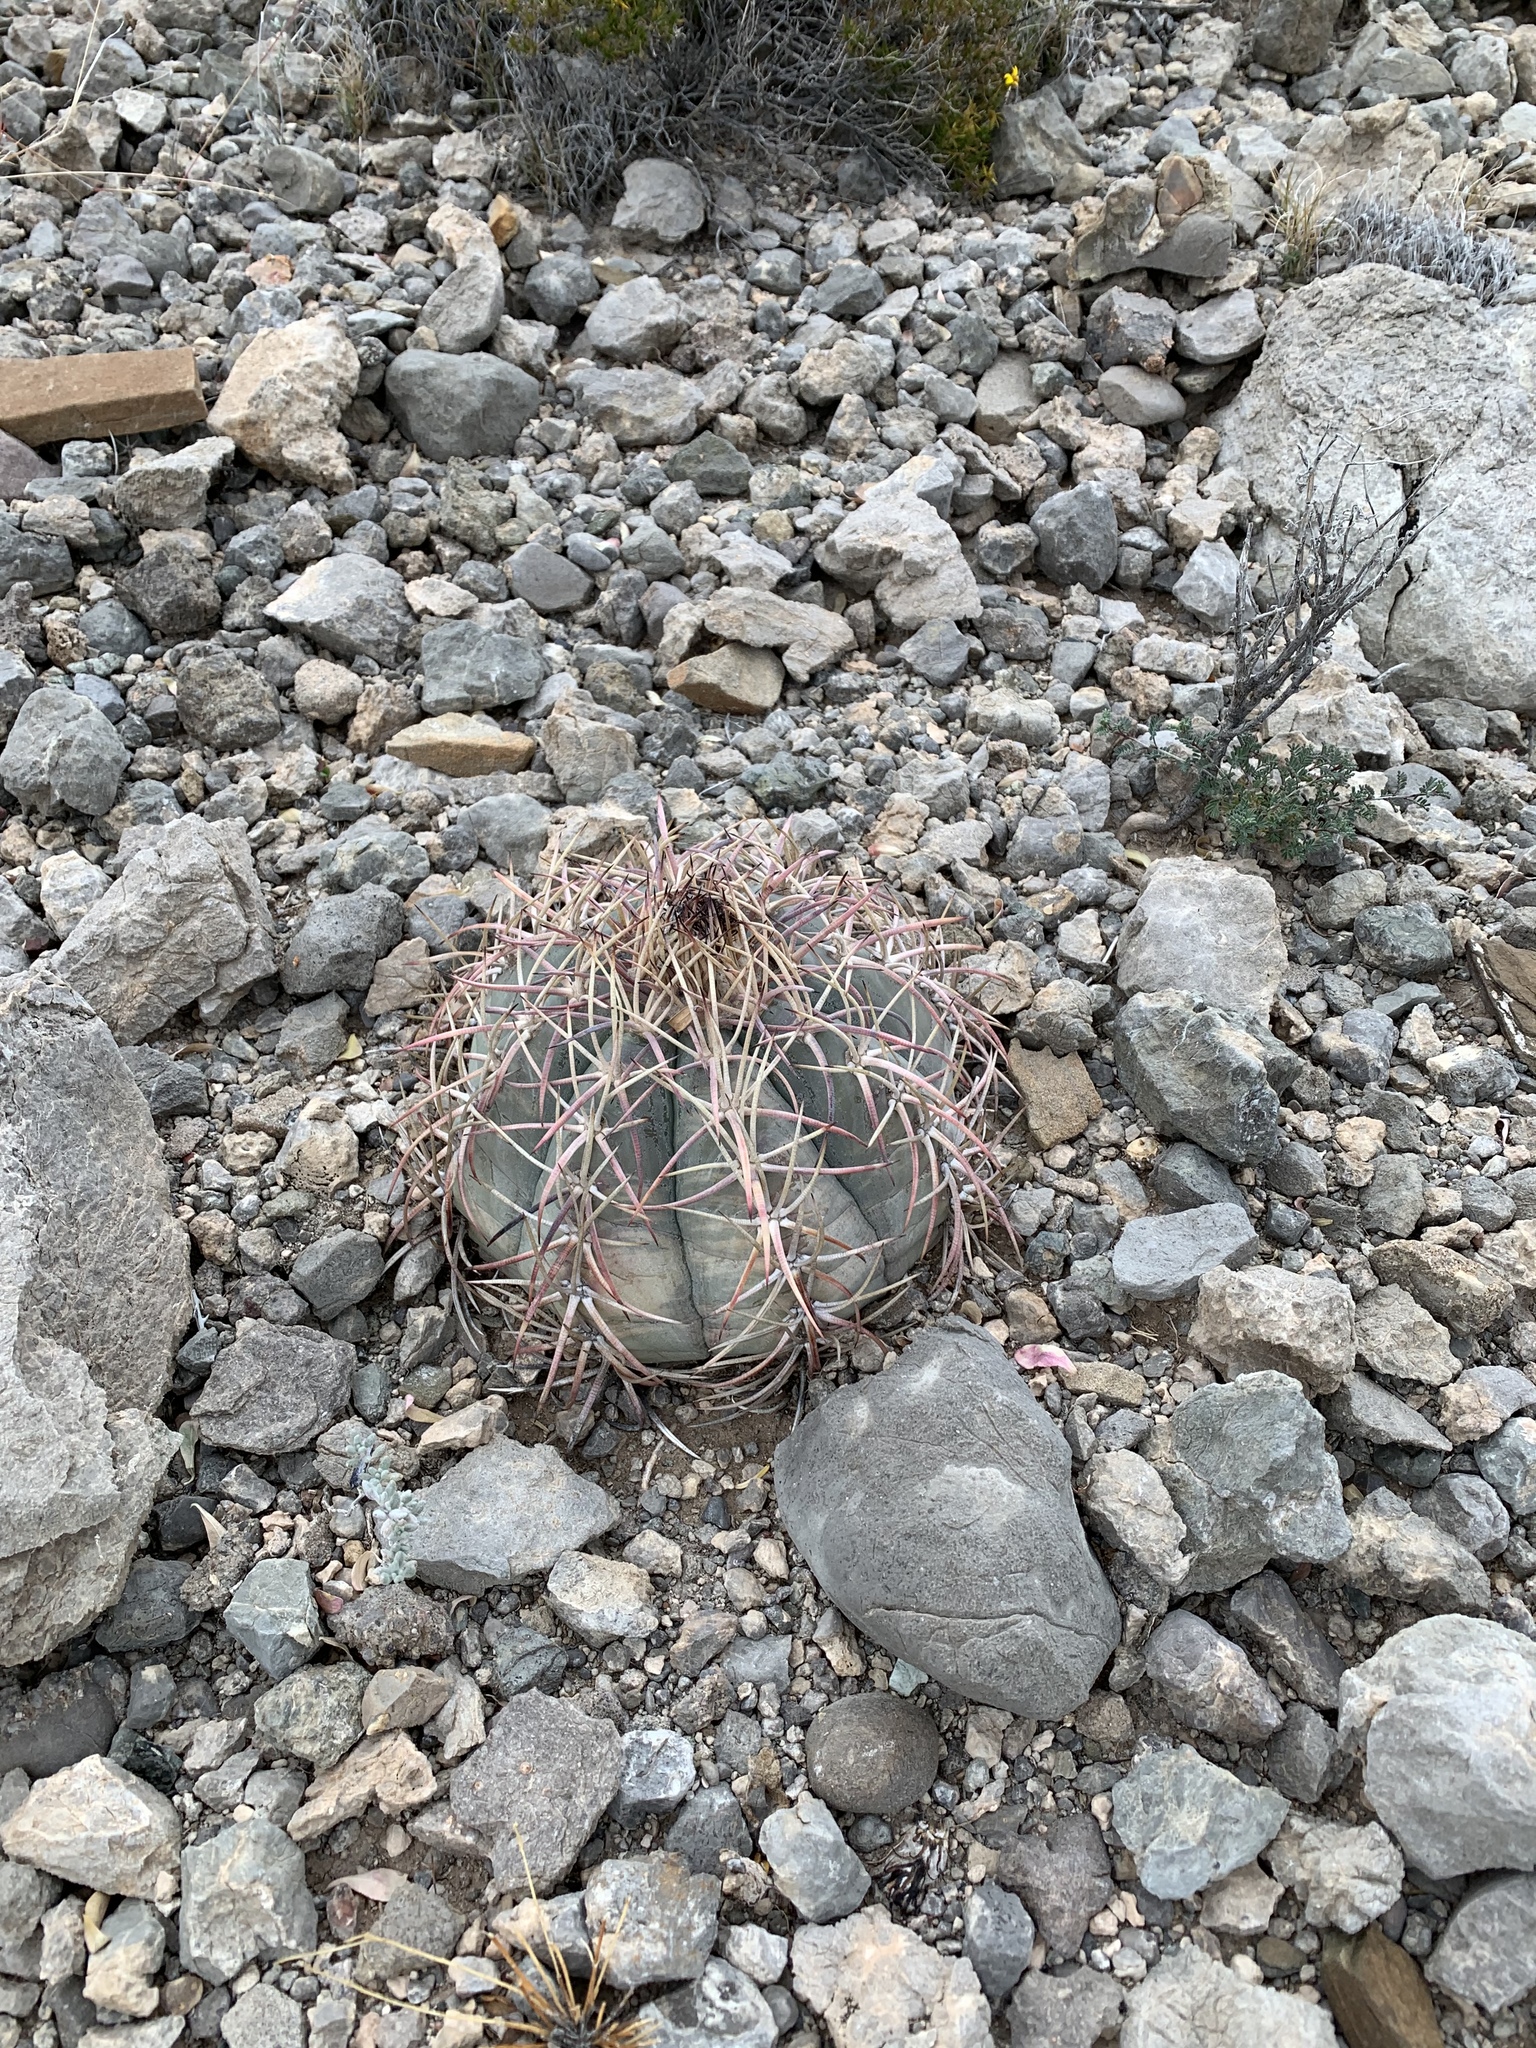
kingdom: Plantae
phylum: Tracheophyta
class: Magnoliopsida
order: Caryophyllales
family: Cactaceae
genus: Echinocactus
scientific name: Echinocactus horizonthalonius
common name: Devilshead
